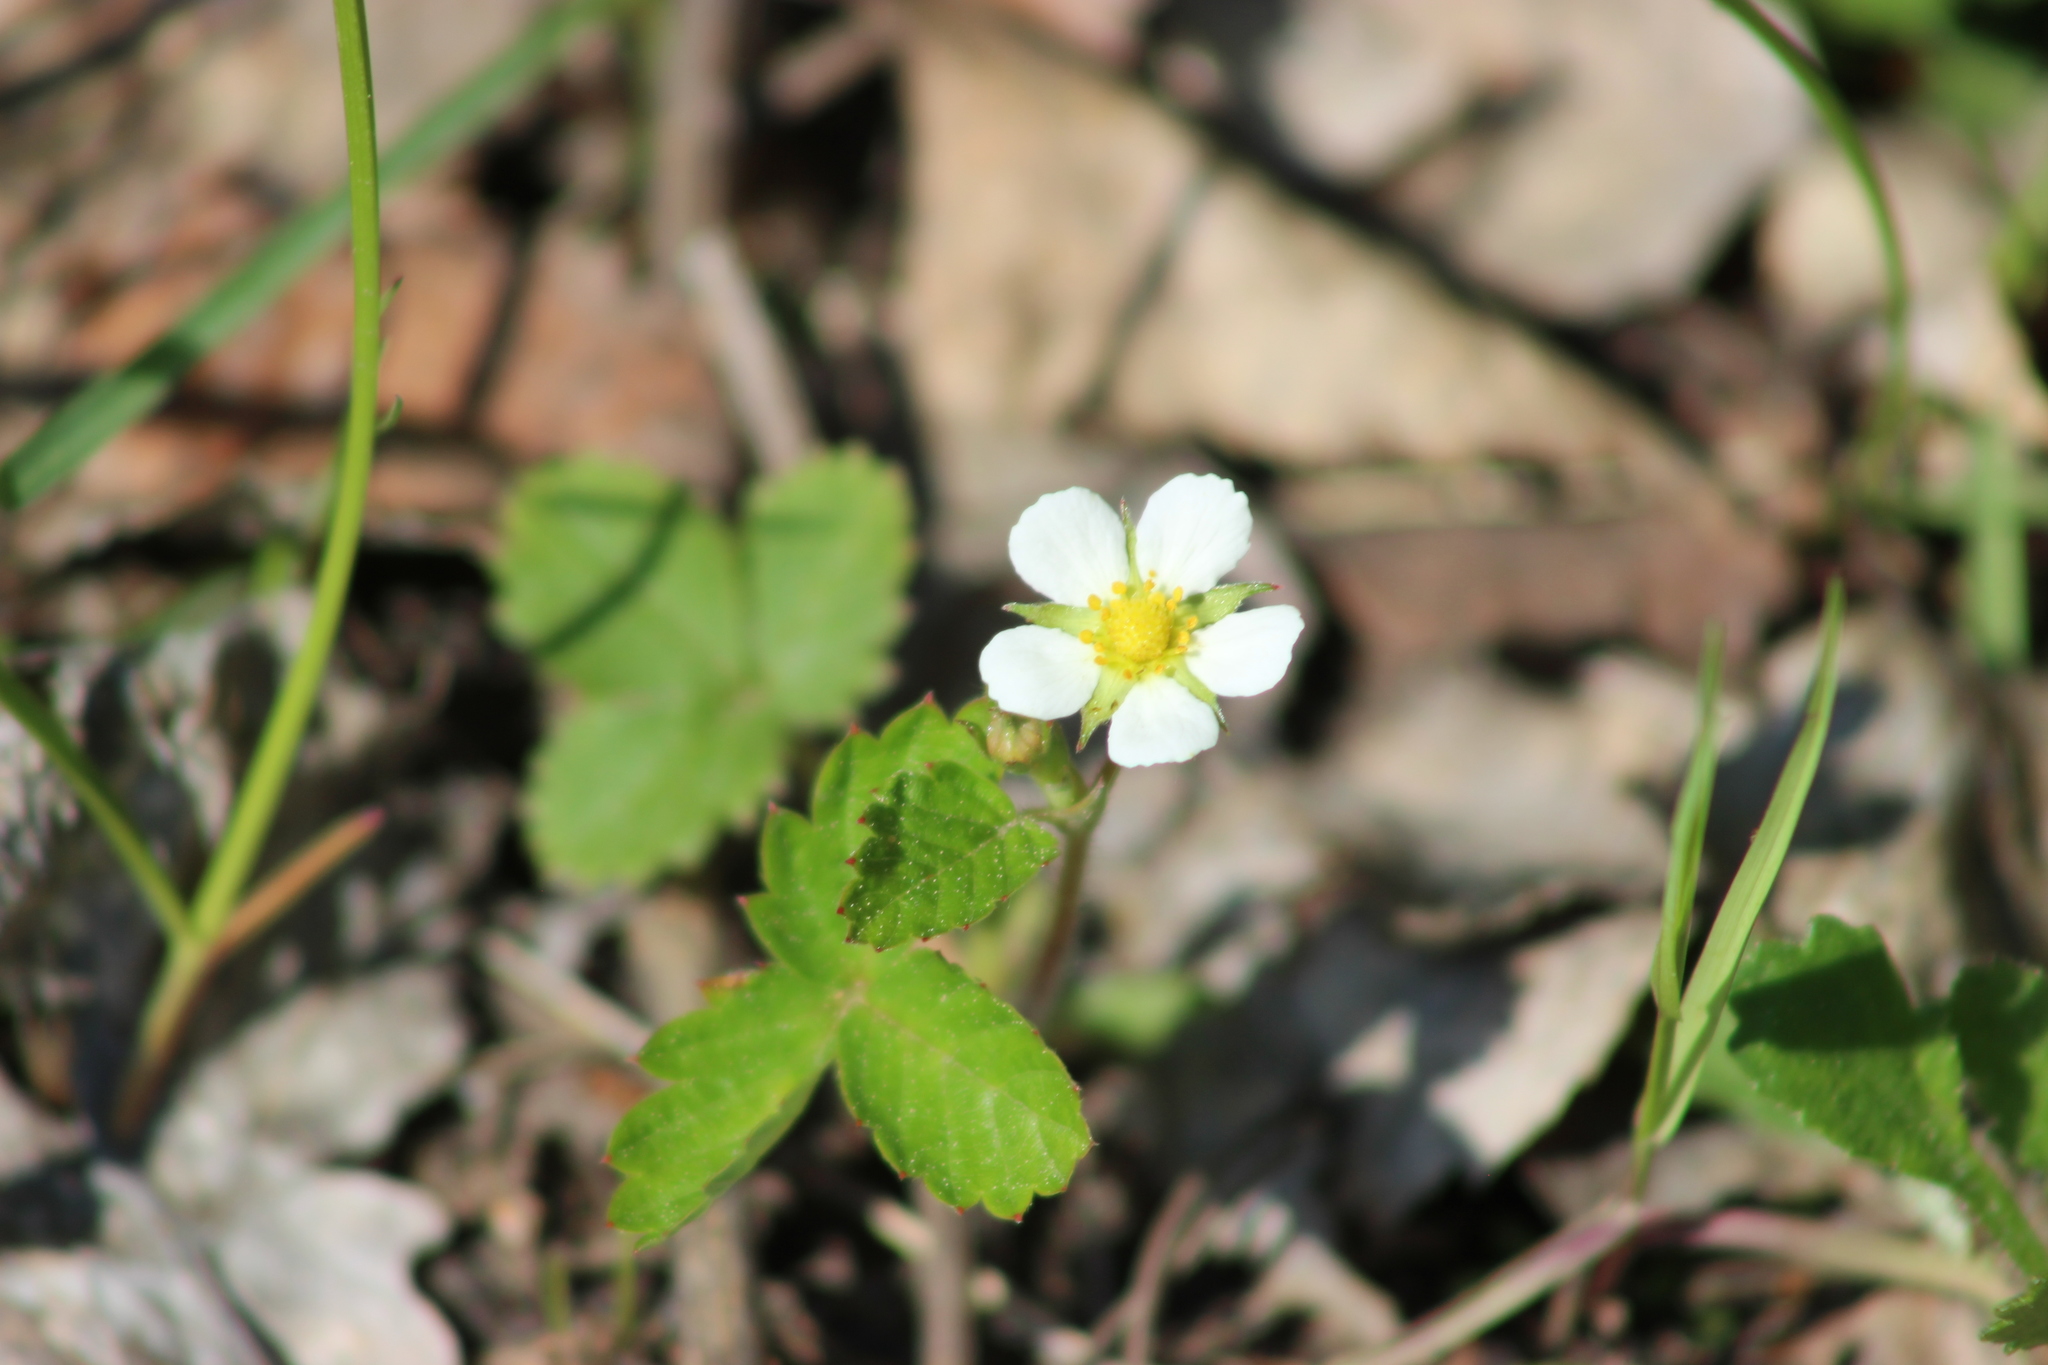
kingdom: Plantae
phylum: Tracheophyta
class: Magnoliopsida
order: Rosales
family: Rosaceae
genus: Fragaria
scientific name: Fragaria vesca
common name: Wild strawberry
